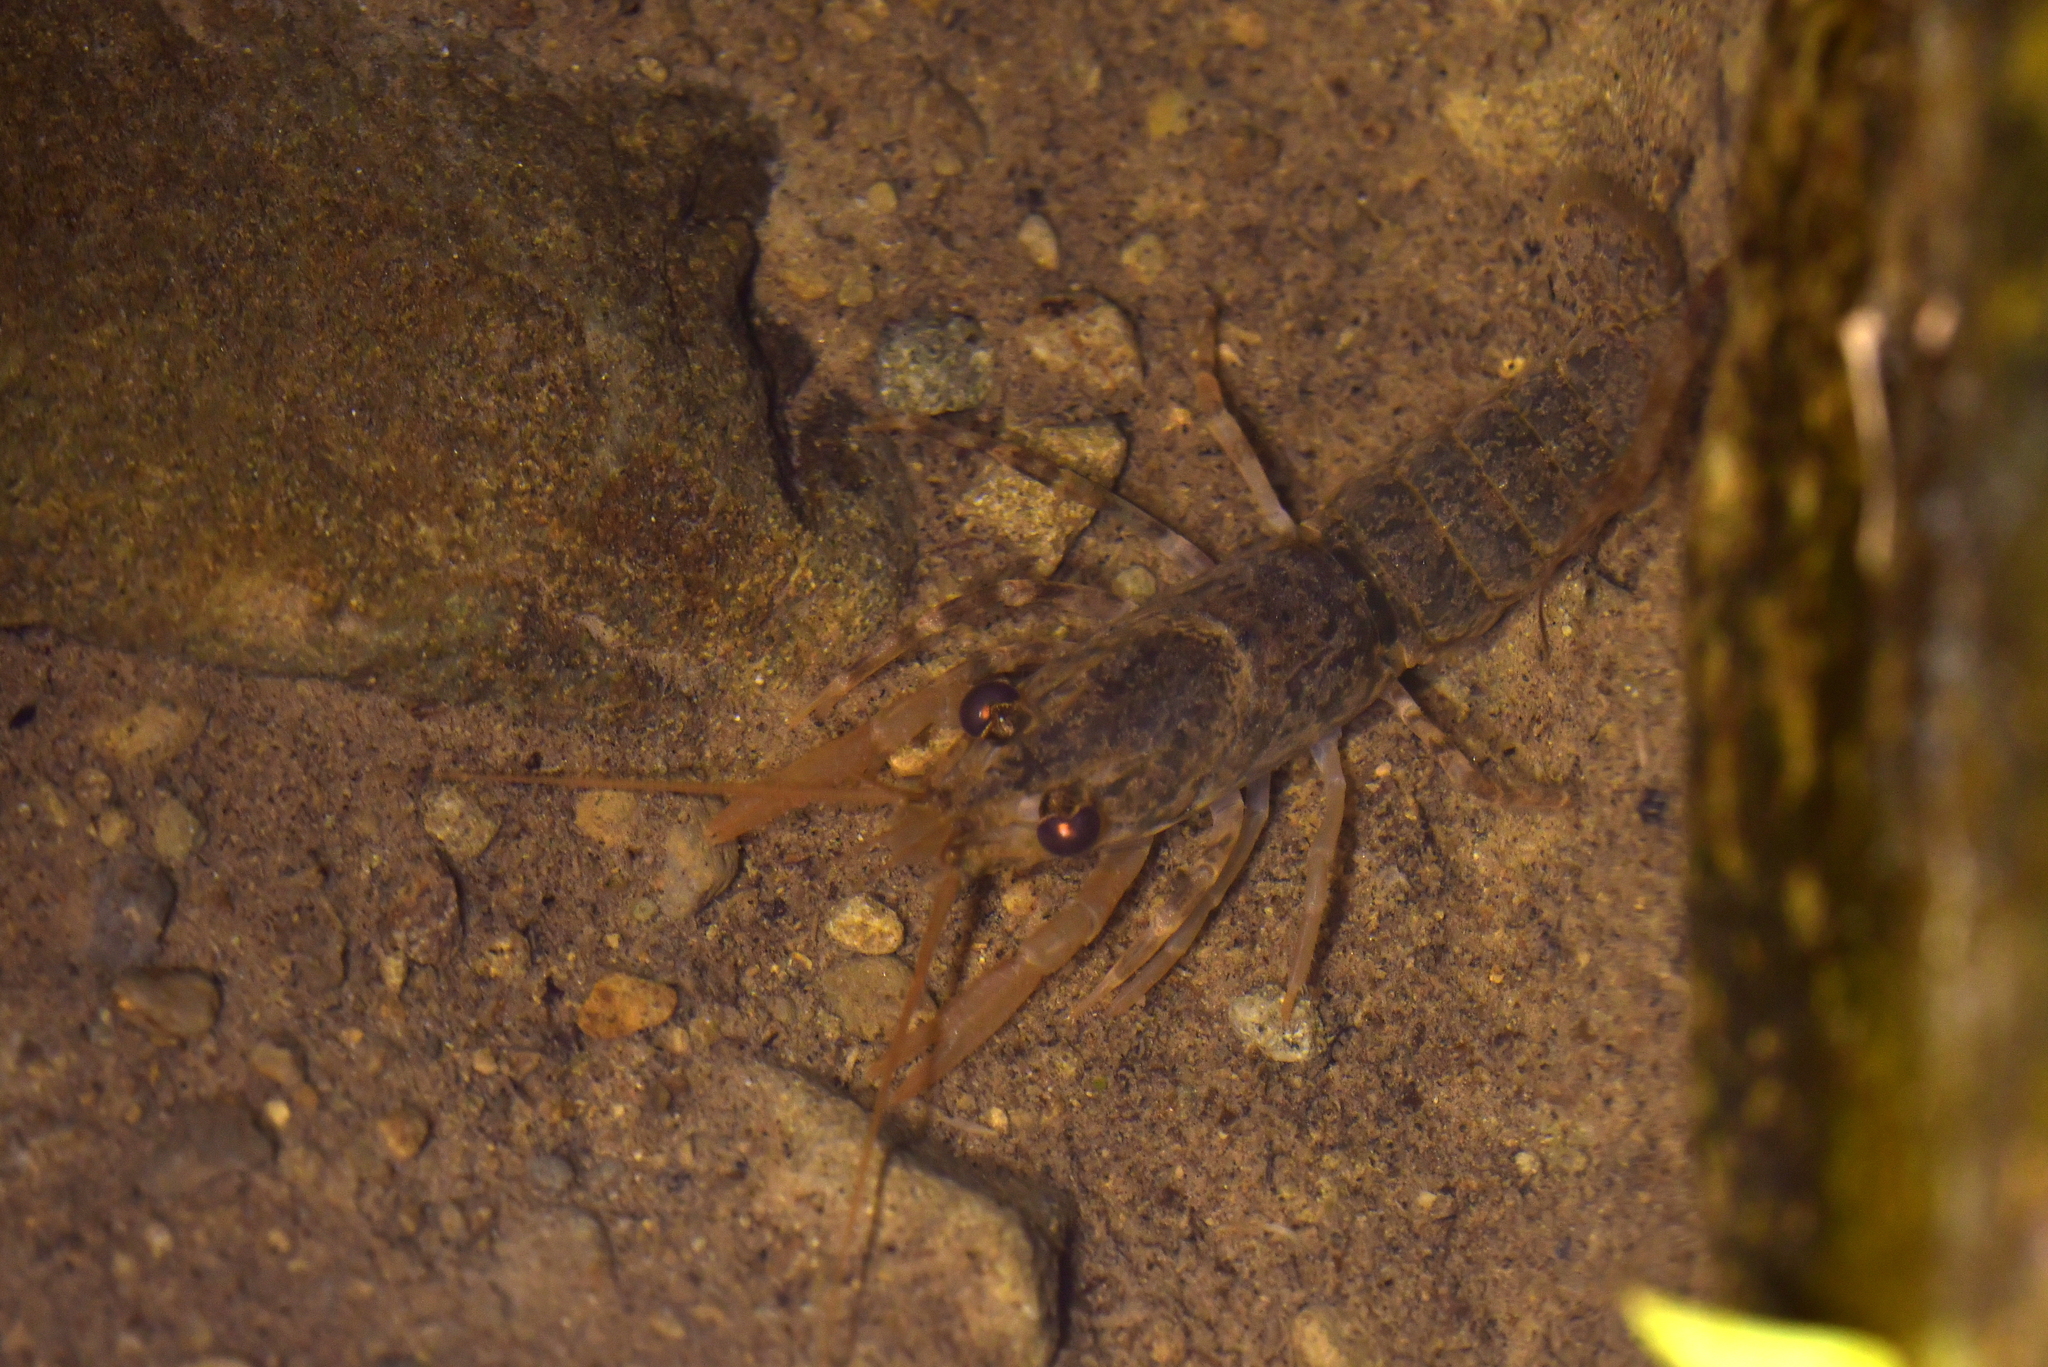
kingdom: Animalia
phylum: Arthropoda
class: Malacostraca
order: Decapoda
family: Parastacidae
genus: Paranephrops
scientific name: Paranephrops planifrons
